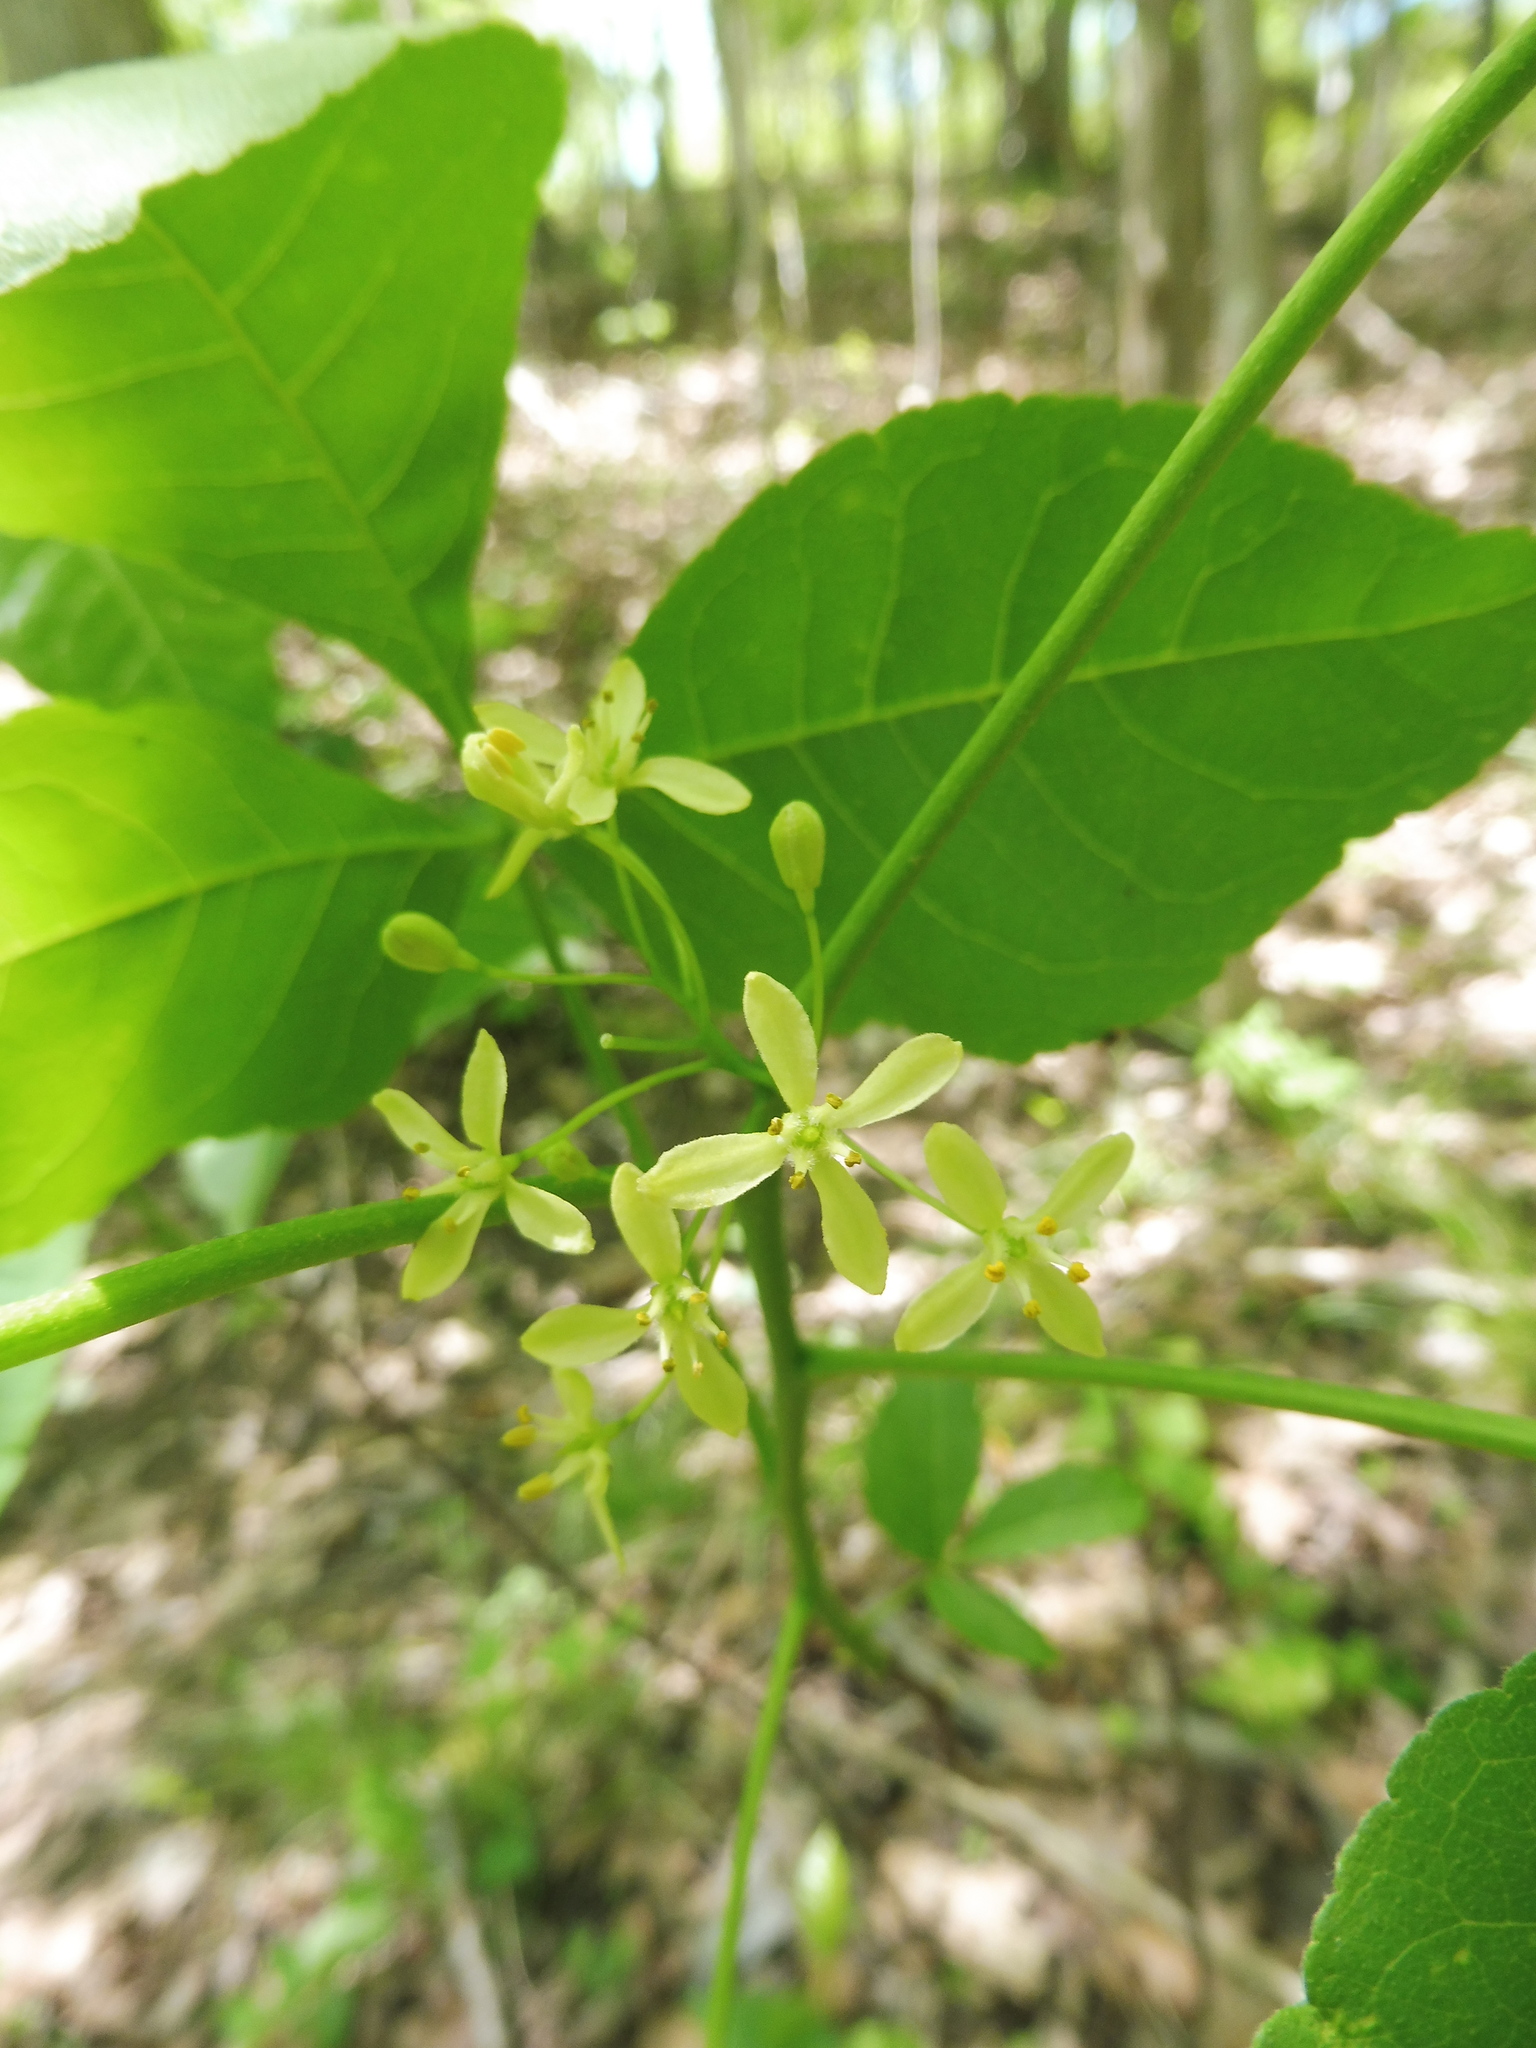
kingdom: Plantae
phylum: Tracheophyta
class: Magnoliopsida
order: Sapindales
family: Rutaceae
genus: Ptelea
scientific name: Ptelea trifoliata
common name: Common hop-tree
